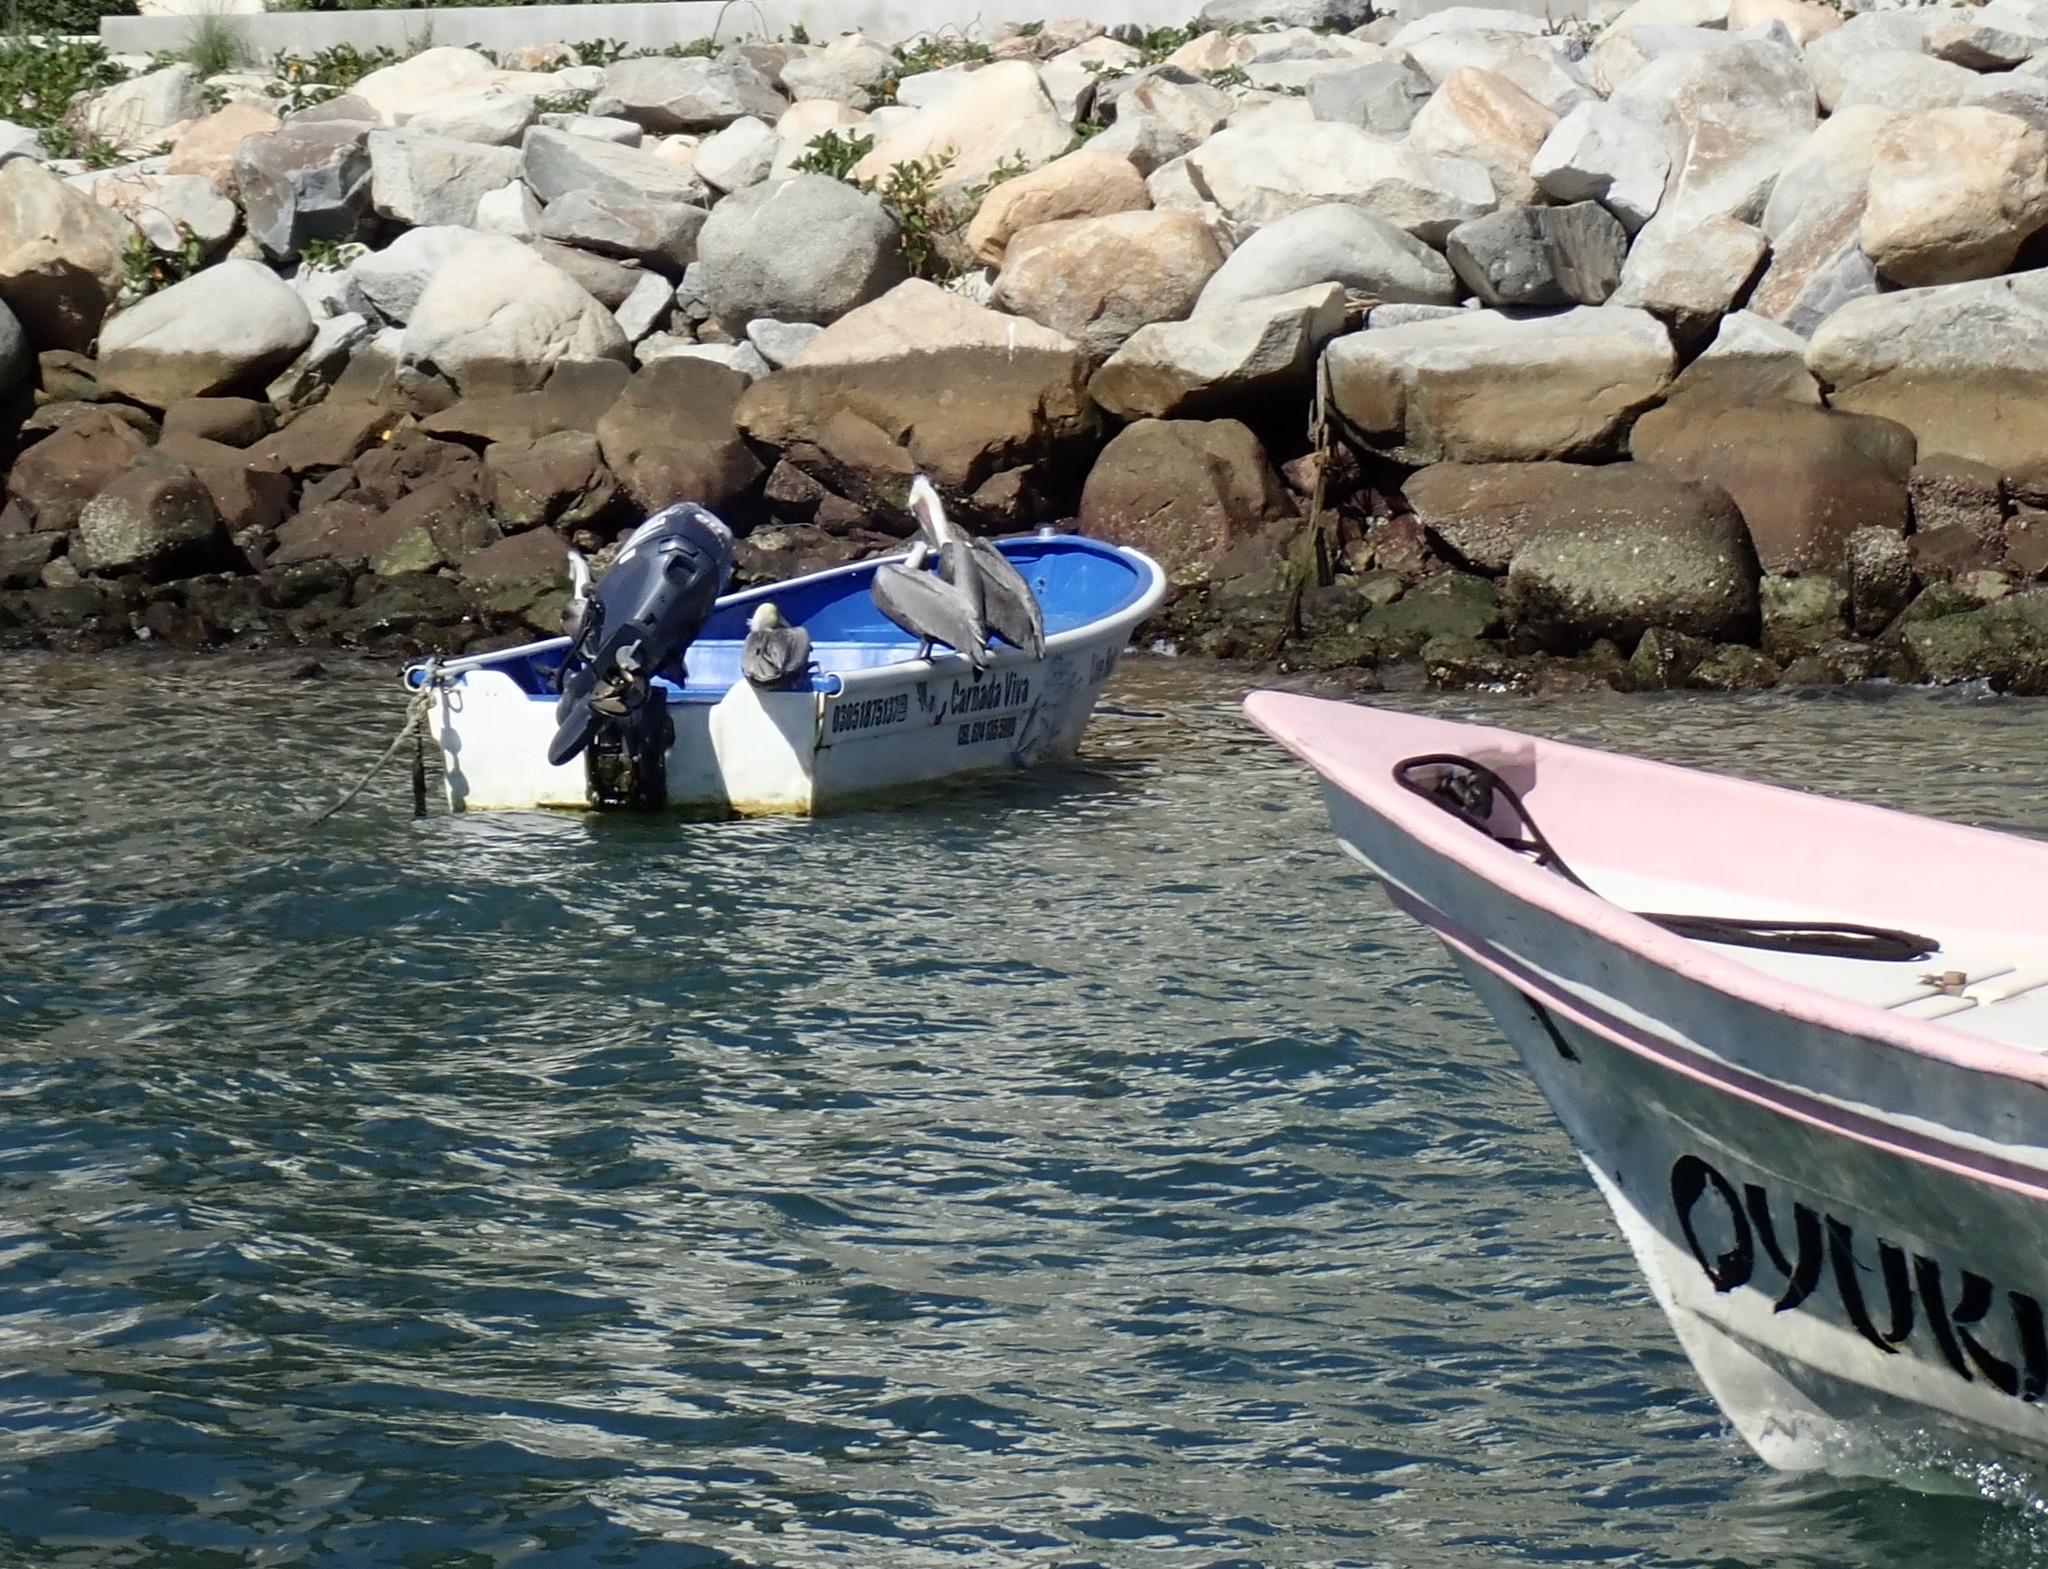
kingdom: Animalia
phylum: Chordata
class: Aves
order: Pelecaniformes
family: Pelecanidae
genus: Pelecanus
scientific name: Pelecanus occidentalis
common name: Brown pelican
